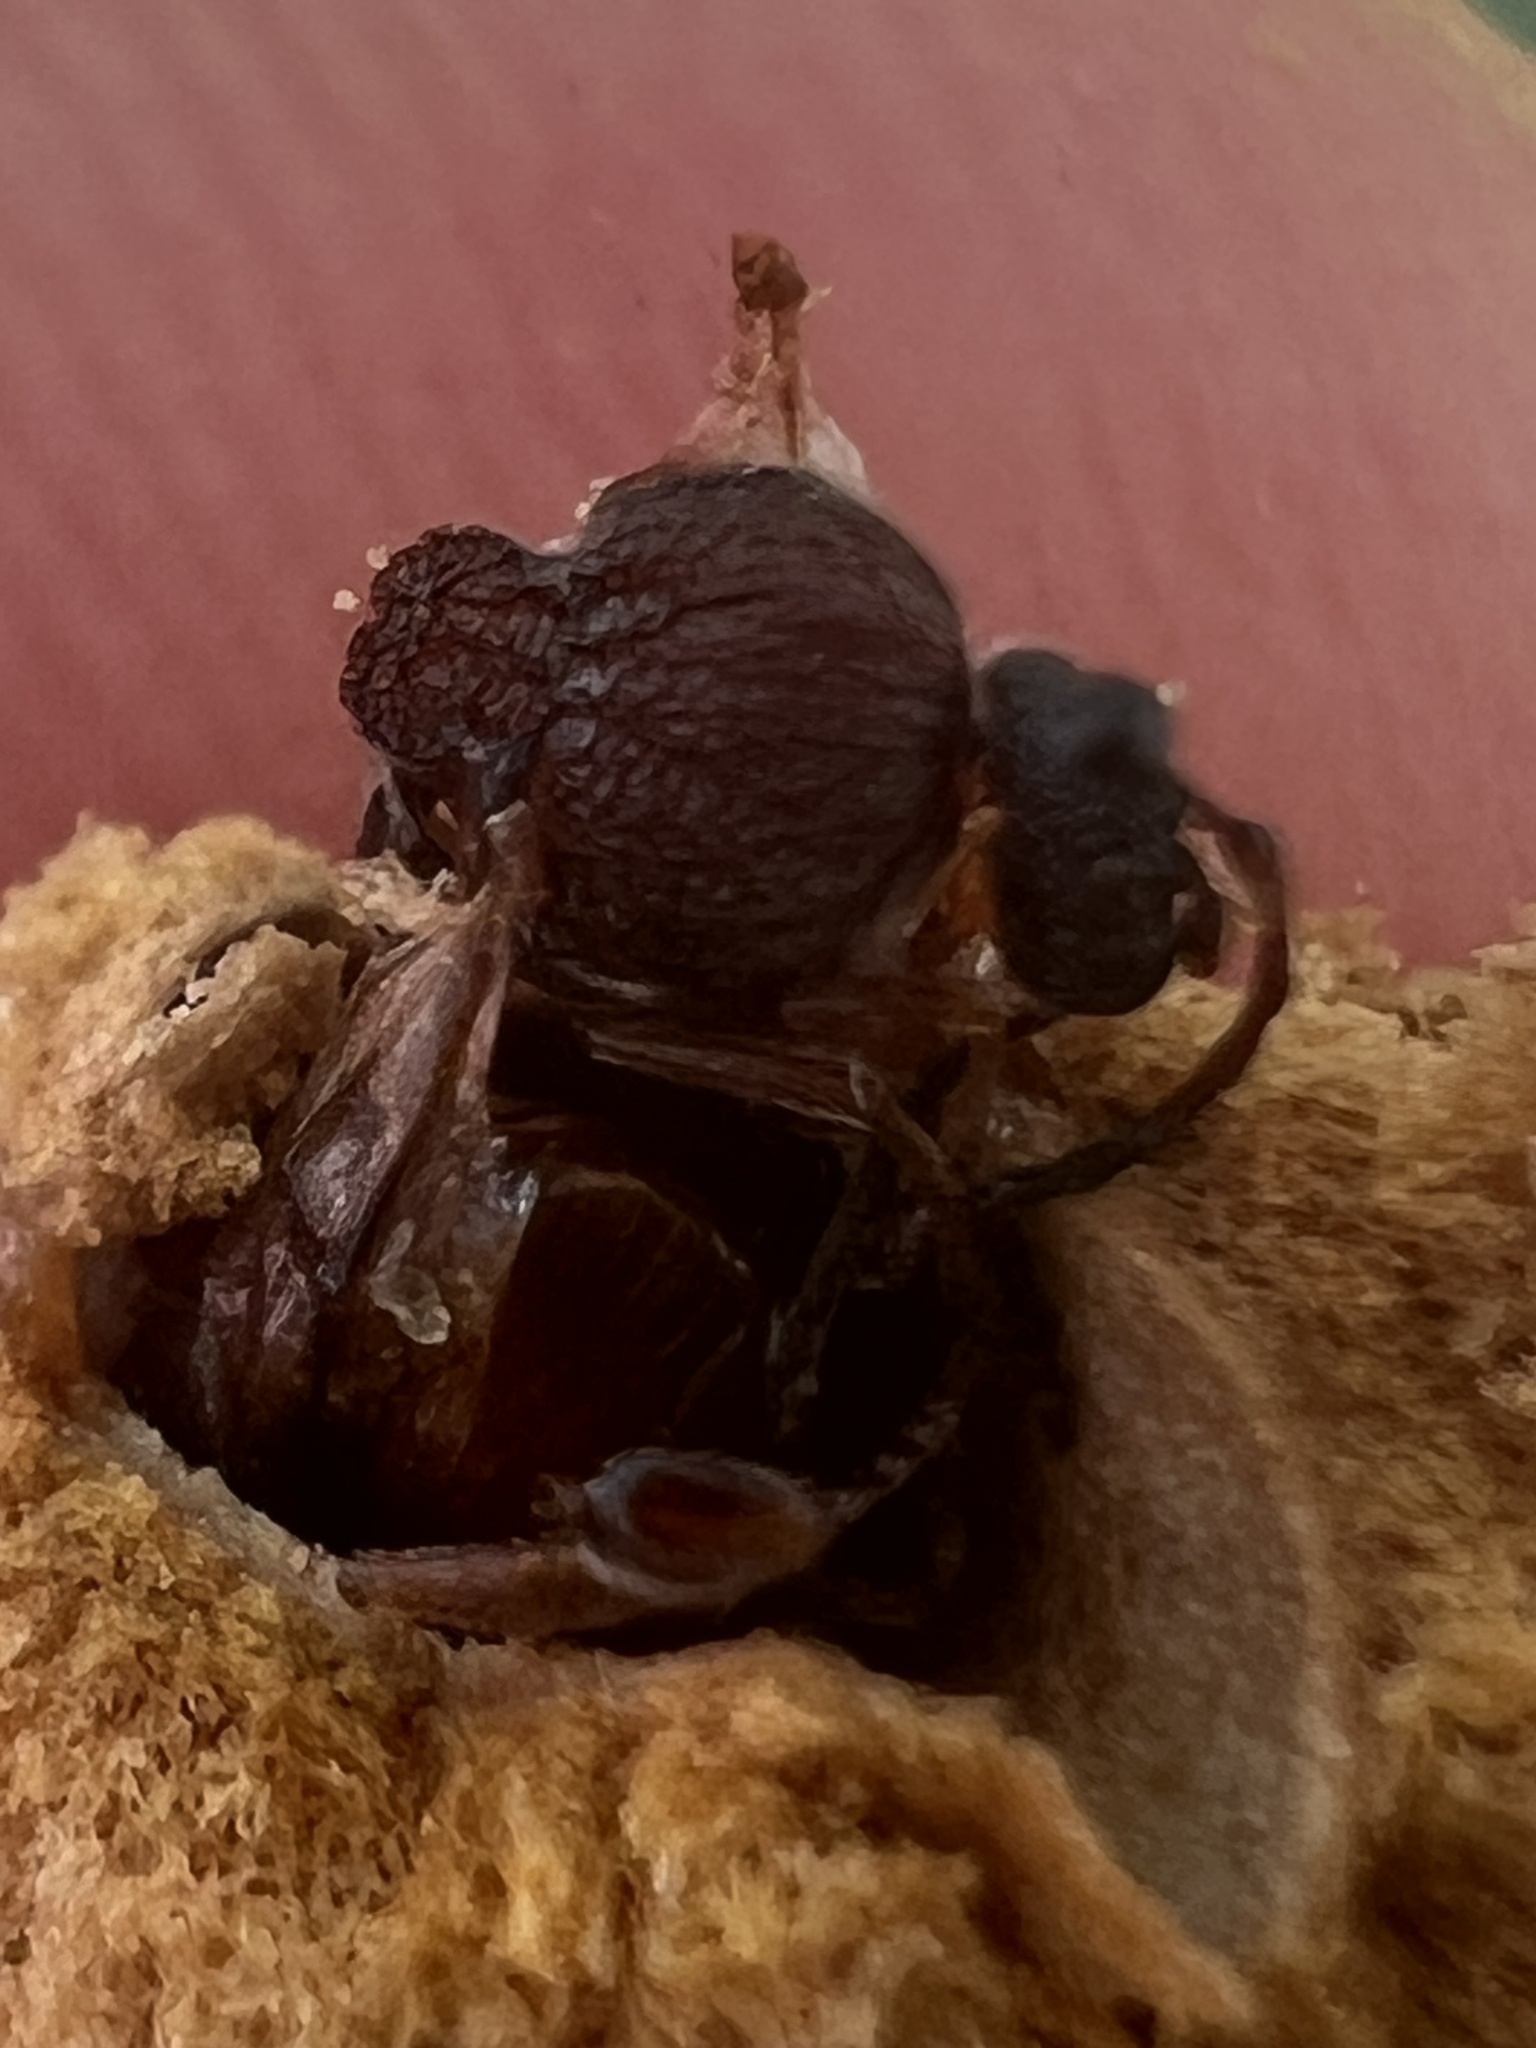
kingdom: Animalia
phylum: Arthropoda
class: Insecta
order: Hymenoptera
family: Cynipidae
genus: Amphibolips
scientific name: Amphibolips
